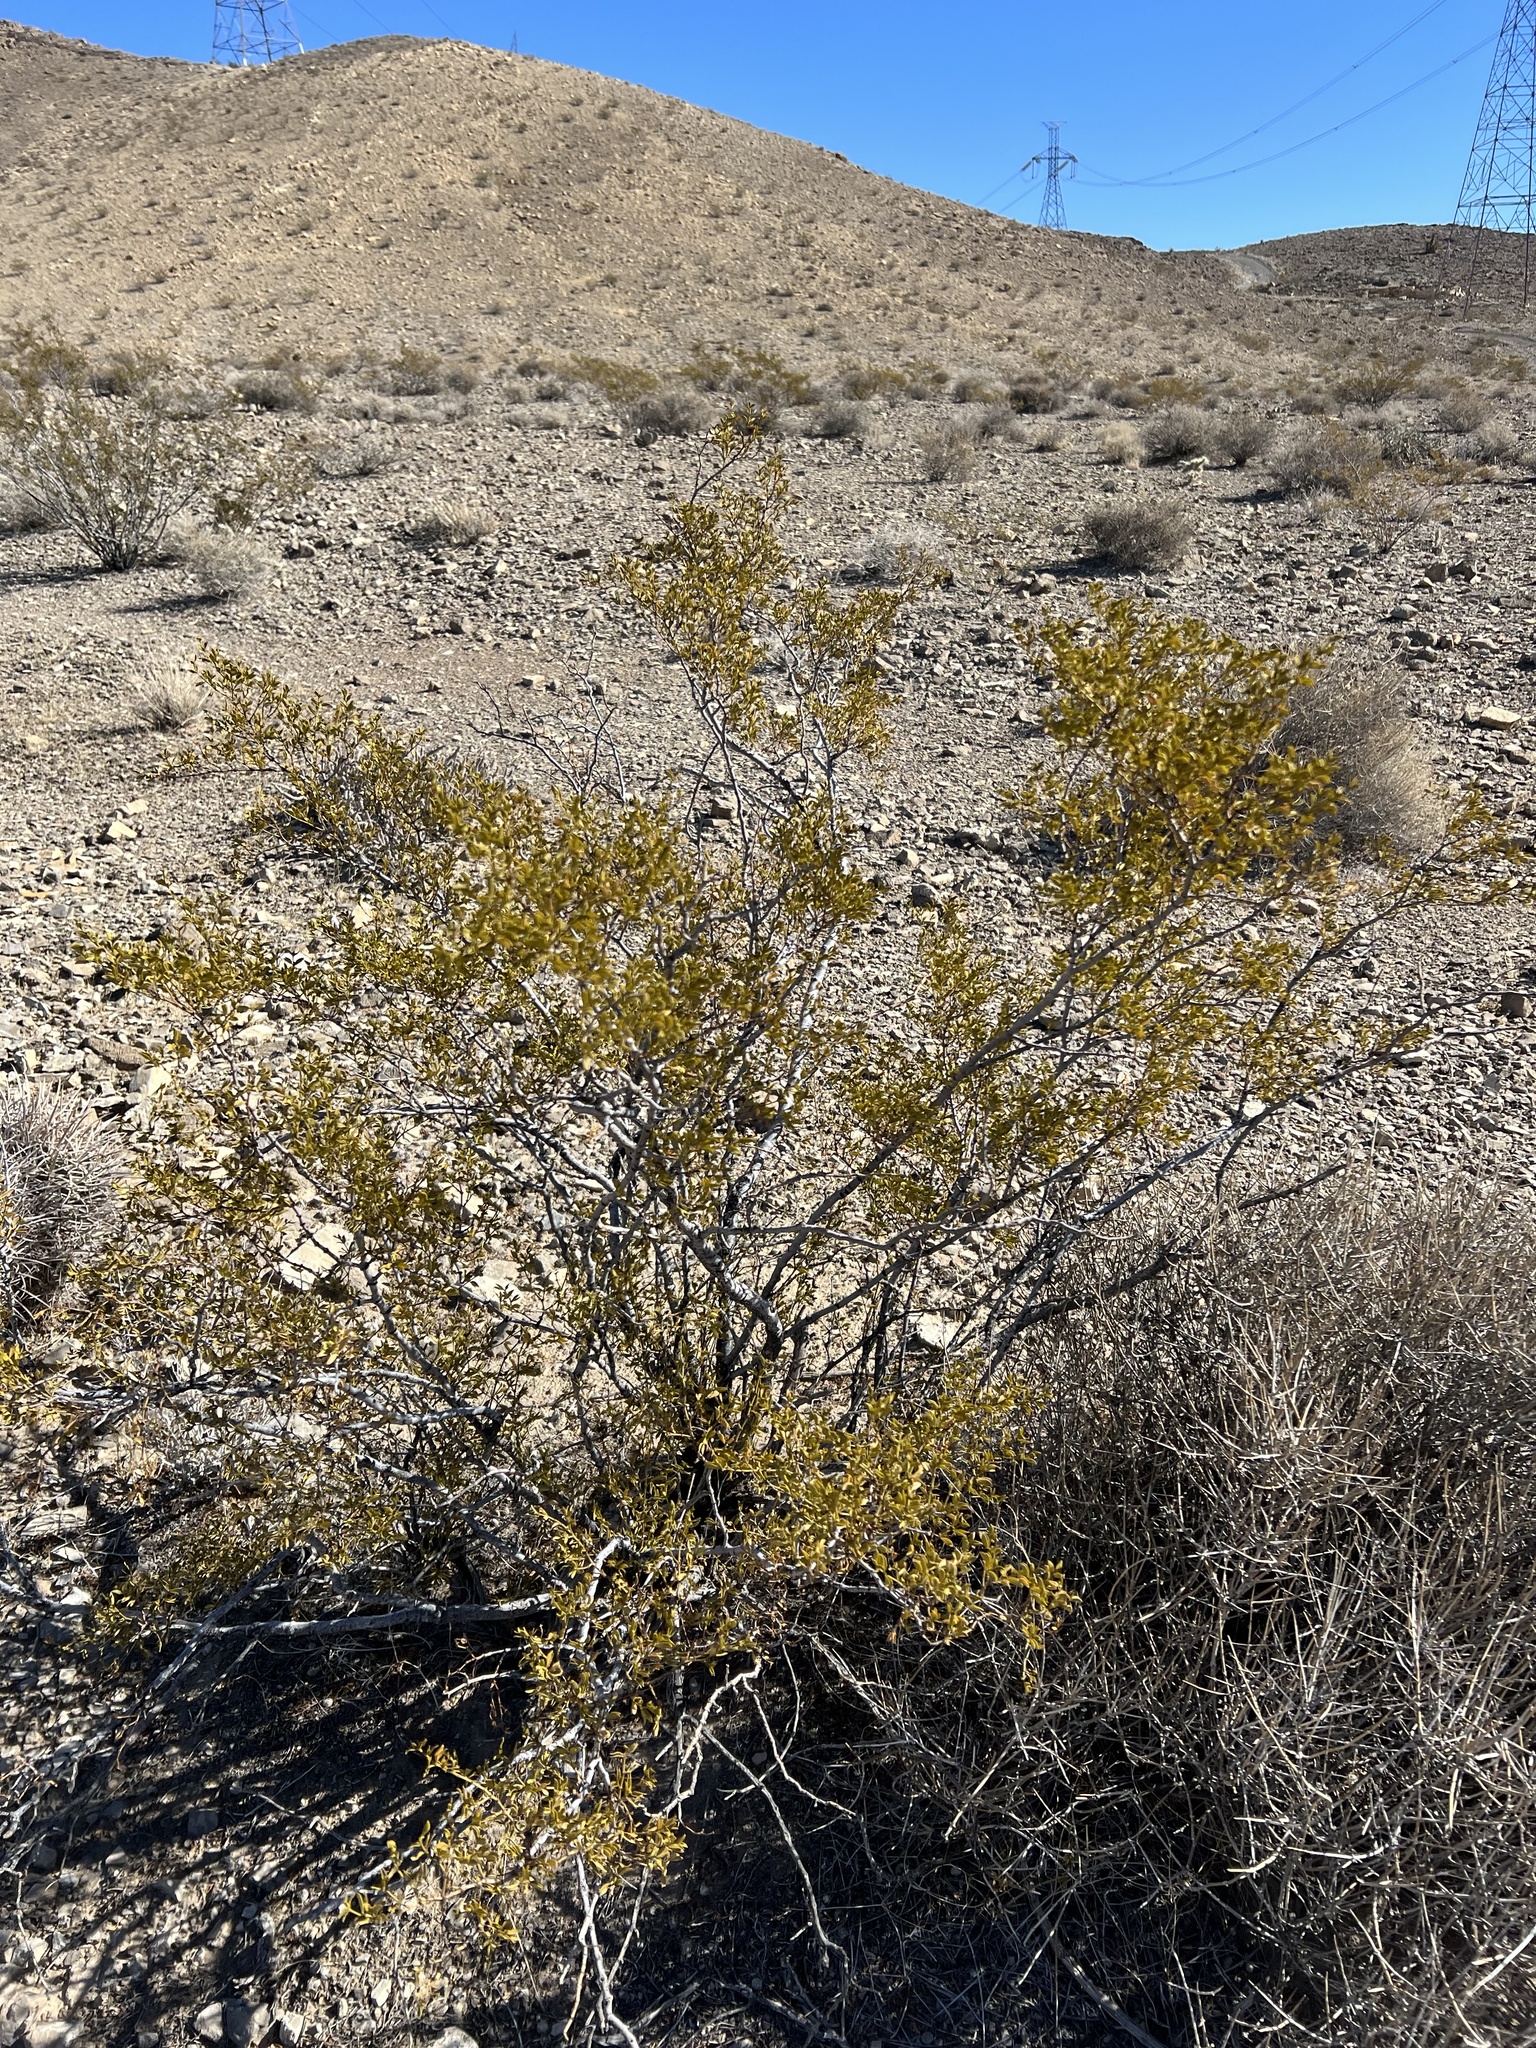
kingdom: Plantae
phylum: Tracheophyta
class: Magnoliopsida
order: Zygophyllales
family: Zygophyllaceae
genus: Larrea
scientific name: Larrea tridentata
